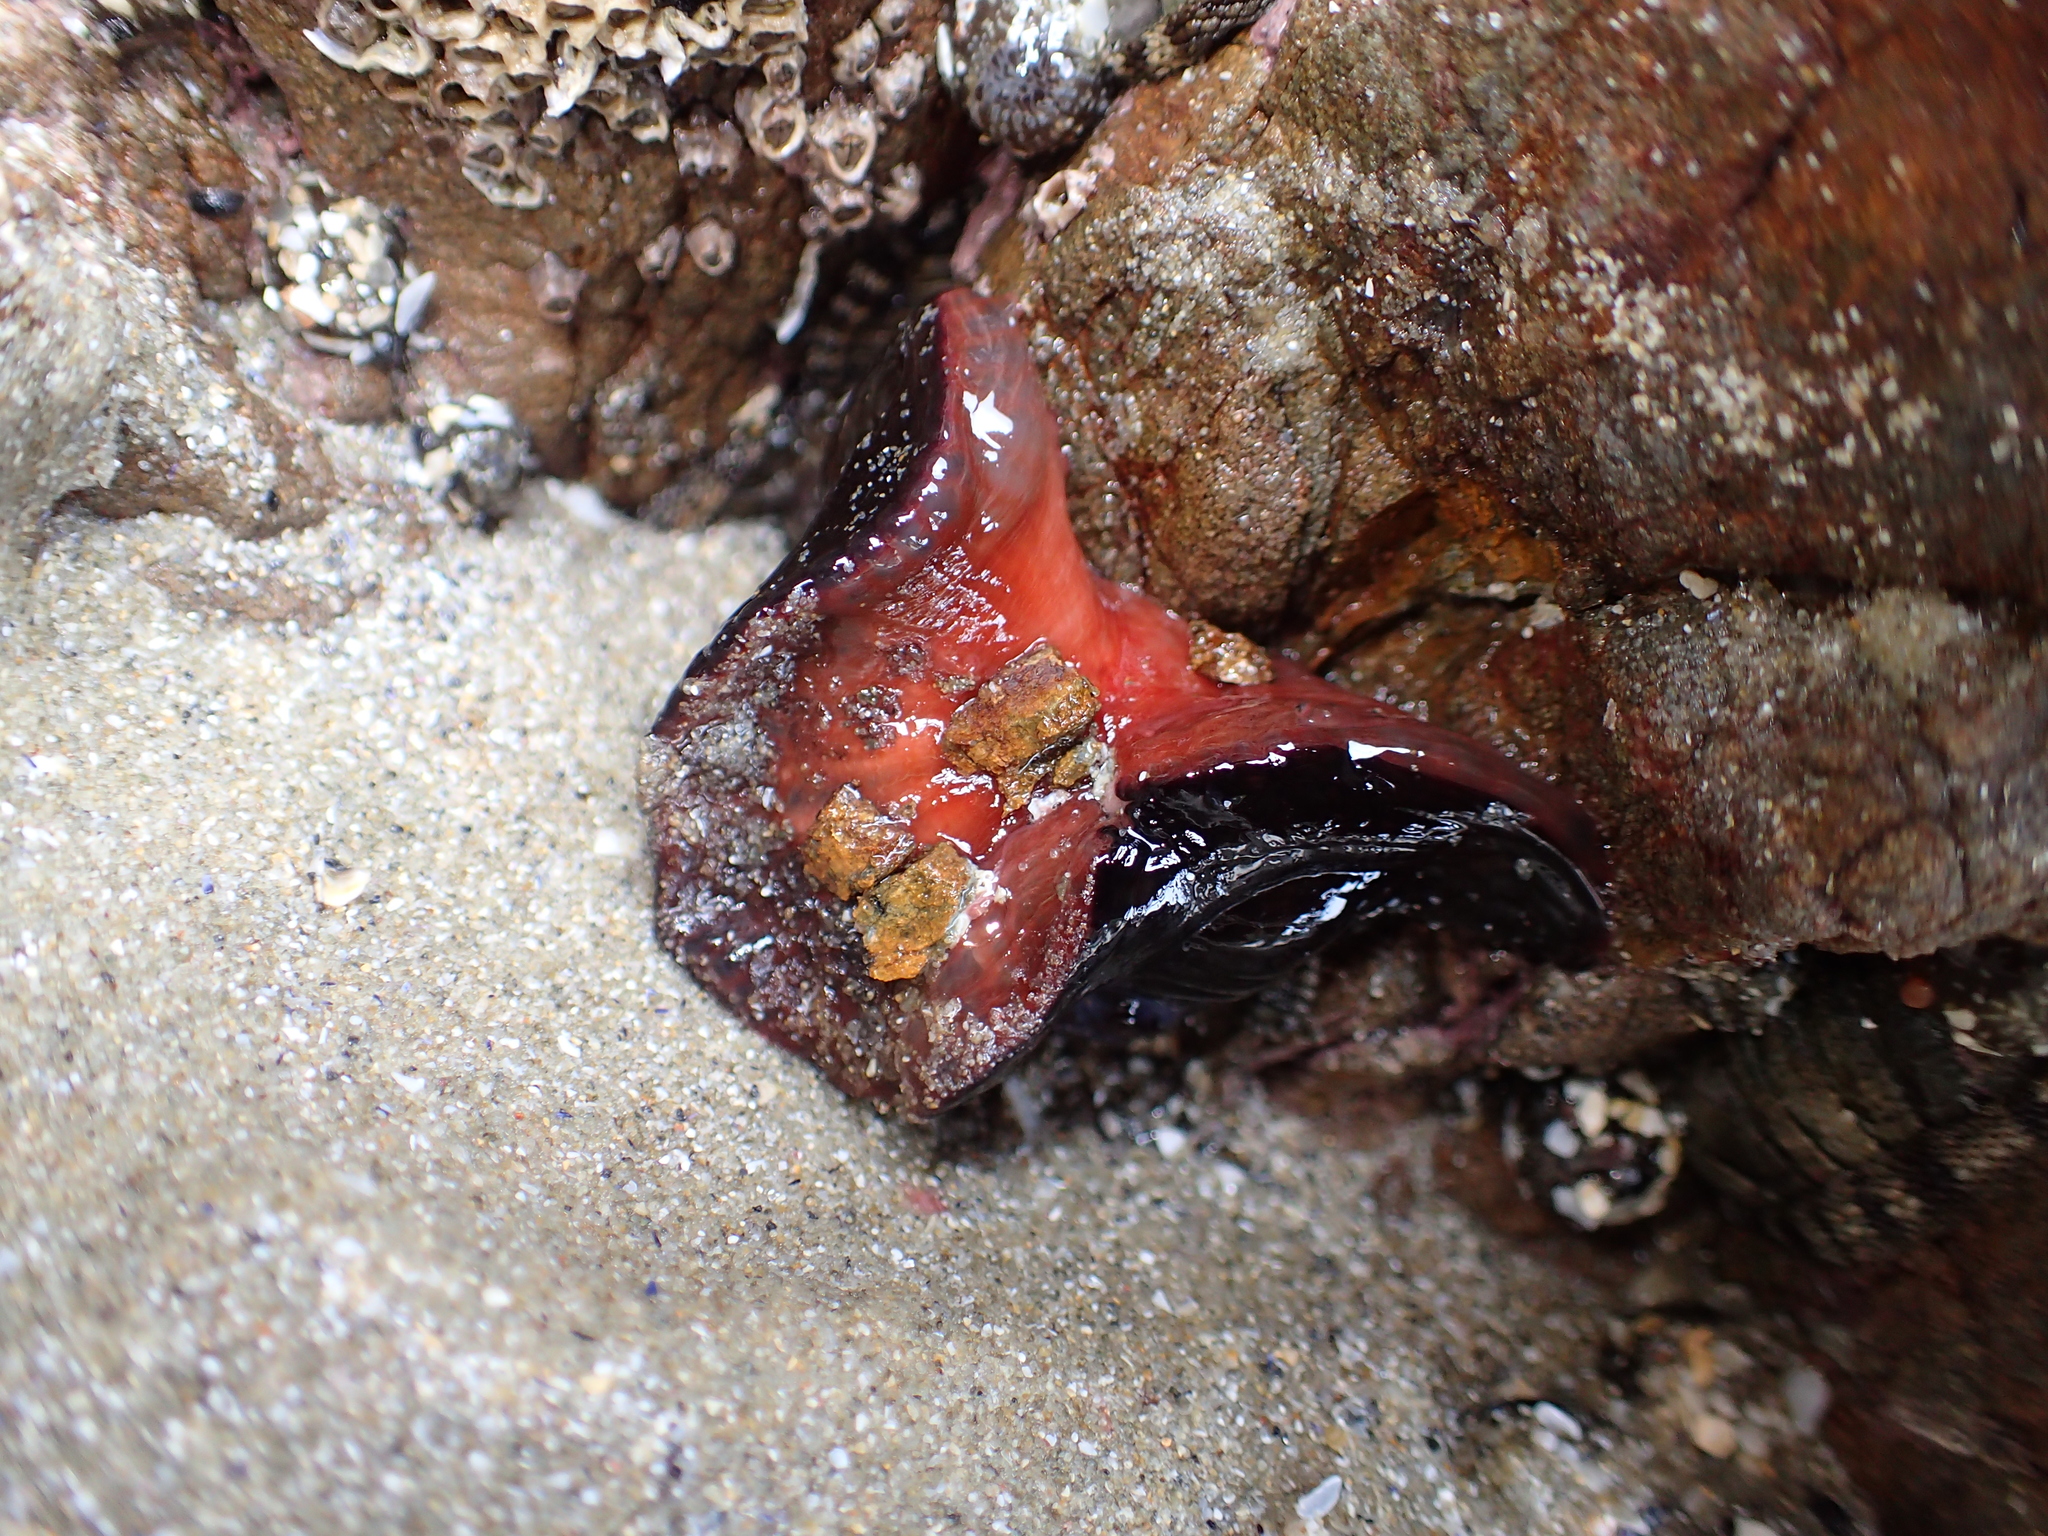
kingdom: Animalia
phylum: Cnidaria
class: Anthozoa
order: Actiniaria
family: Actiniidae
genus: Actinia
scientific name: Actinia tenebrosa
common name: Waratah anemone
